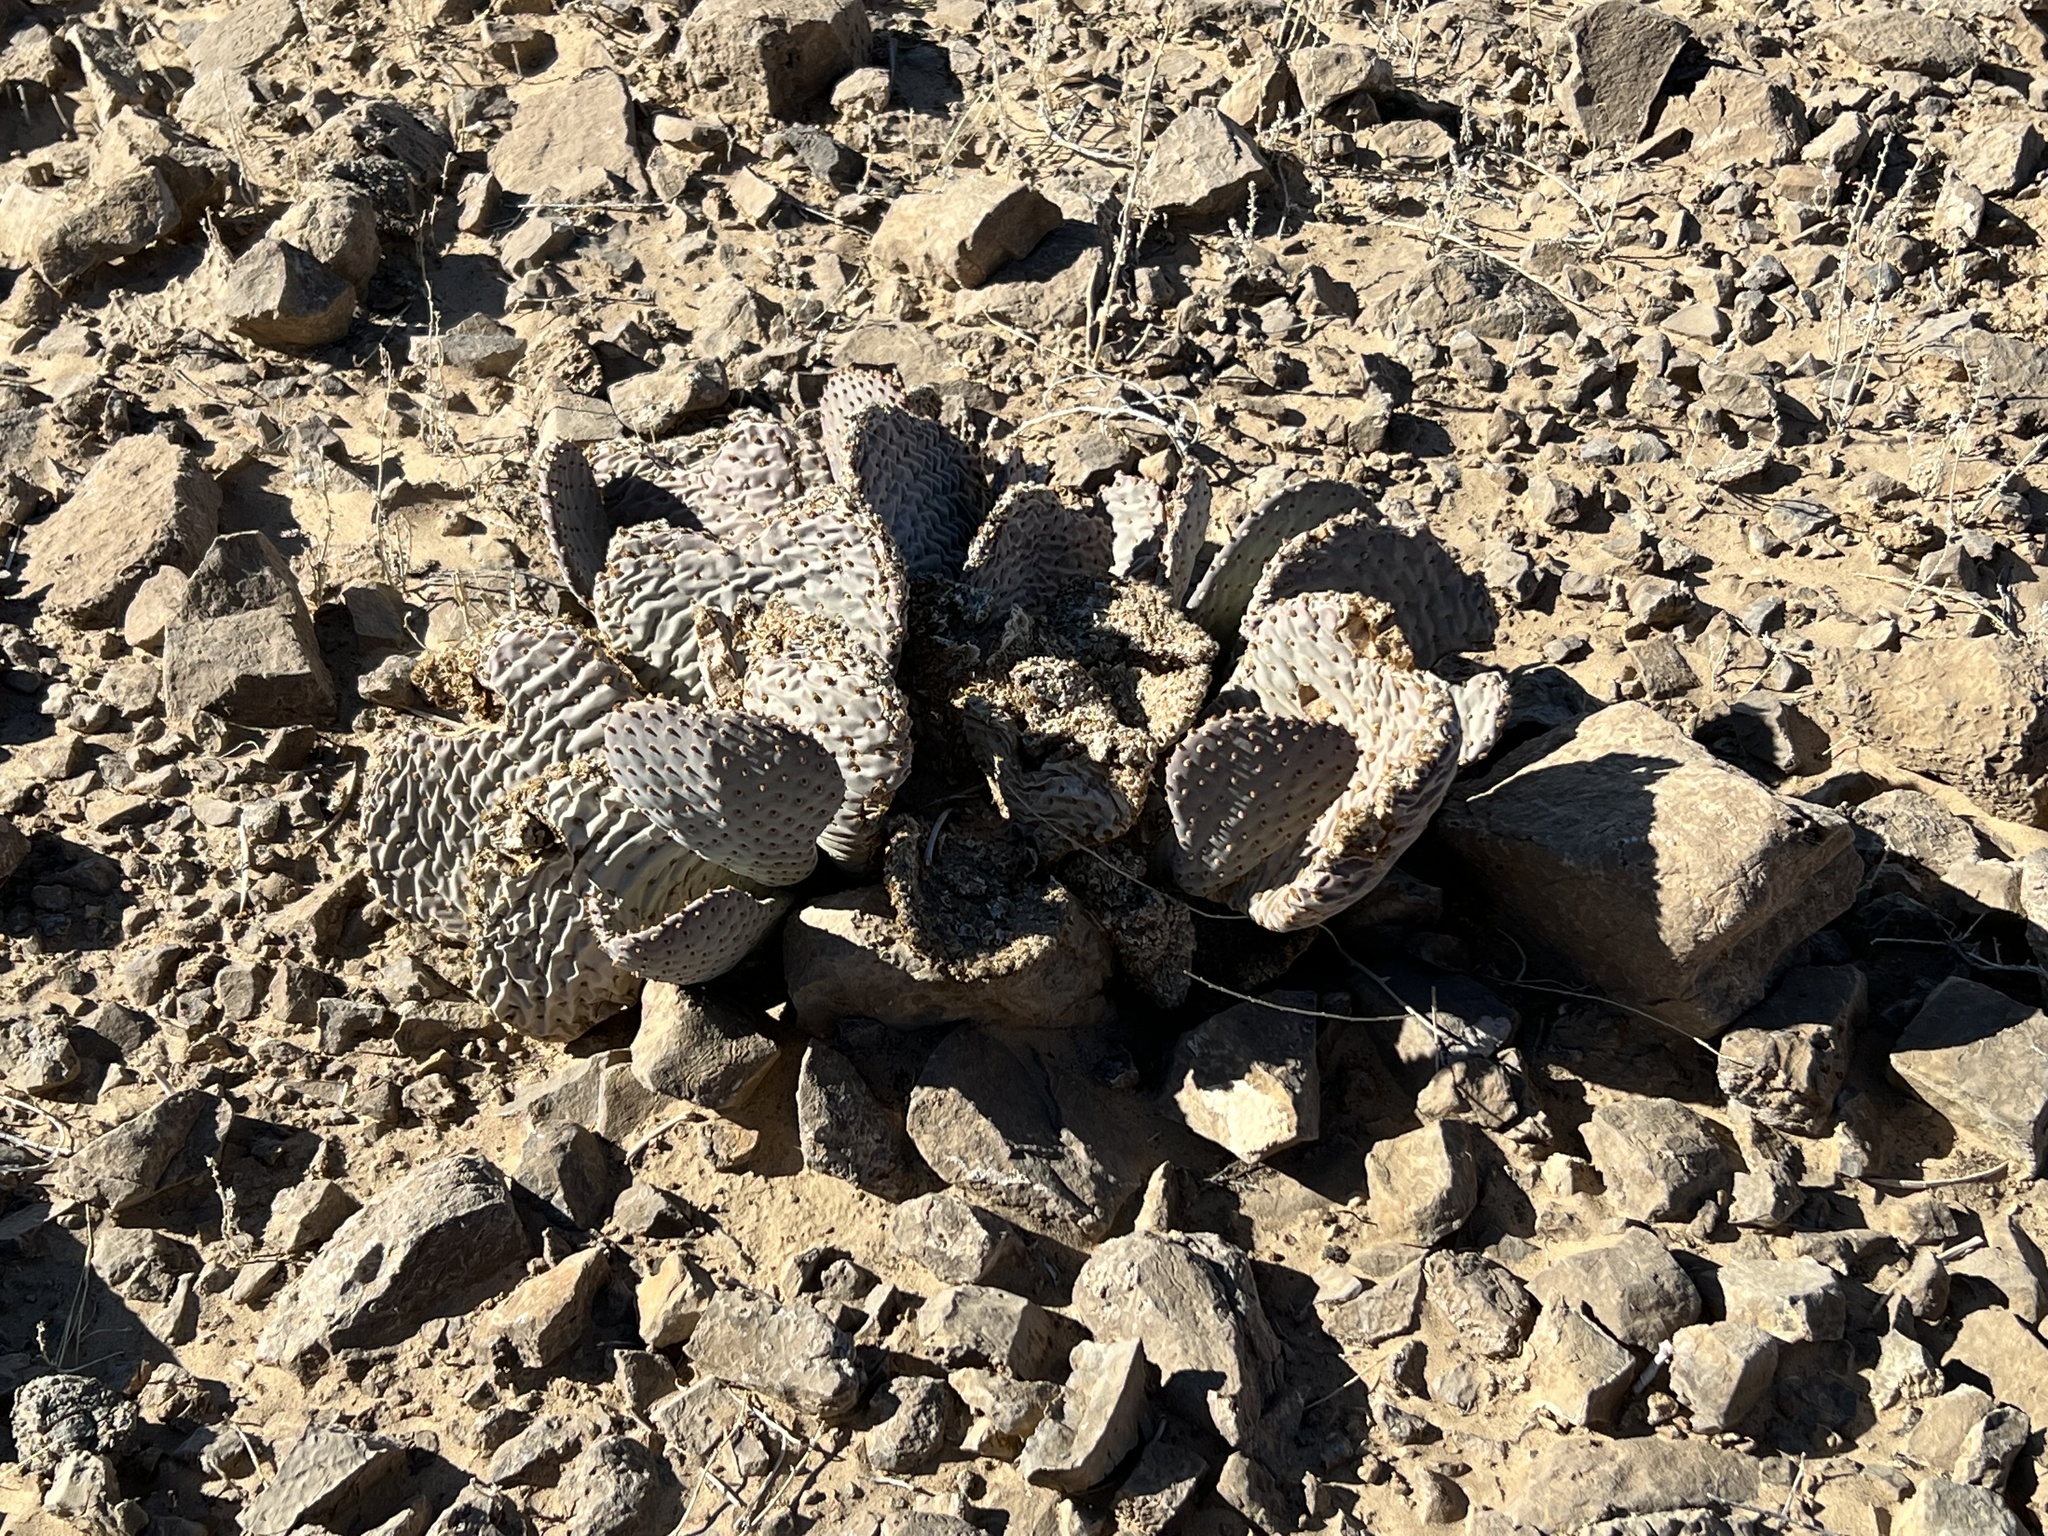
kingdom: Plantae
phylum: Tracheophyta
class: Magnoliopsida
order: Caryophyllales
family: Cactaceae
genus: Opuntia
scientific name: Opuntia basilaris
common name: Beavertail prickly-pear
